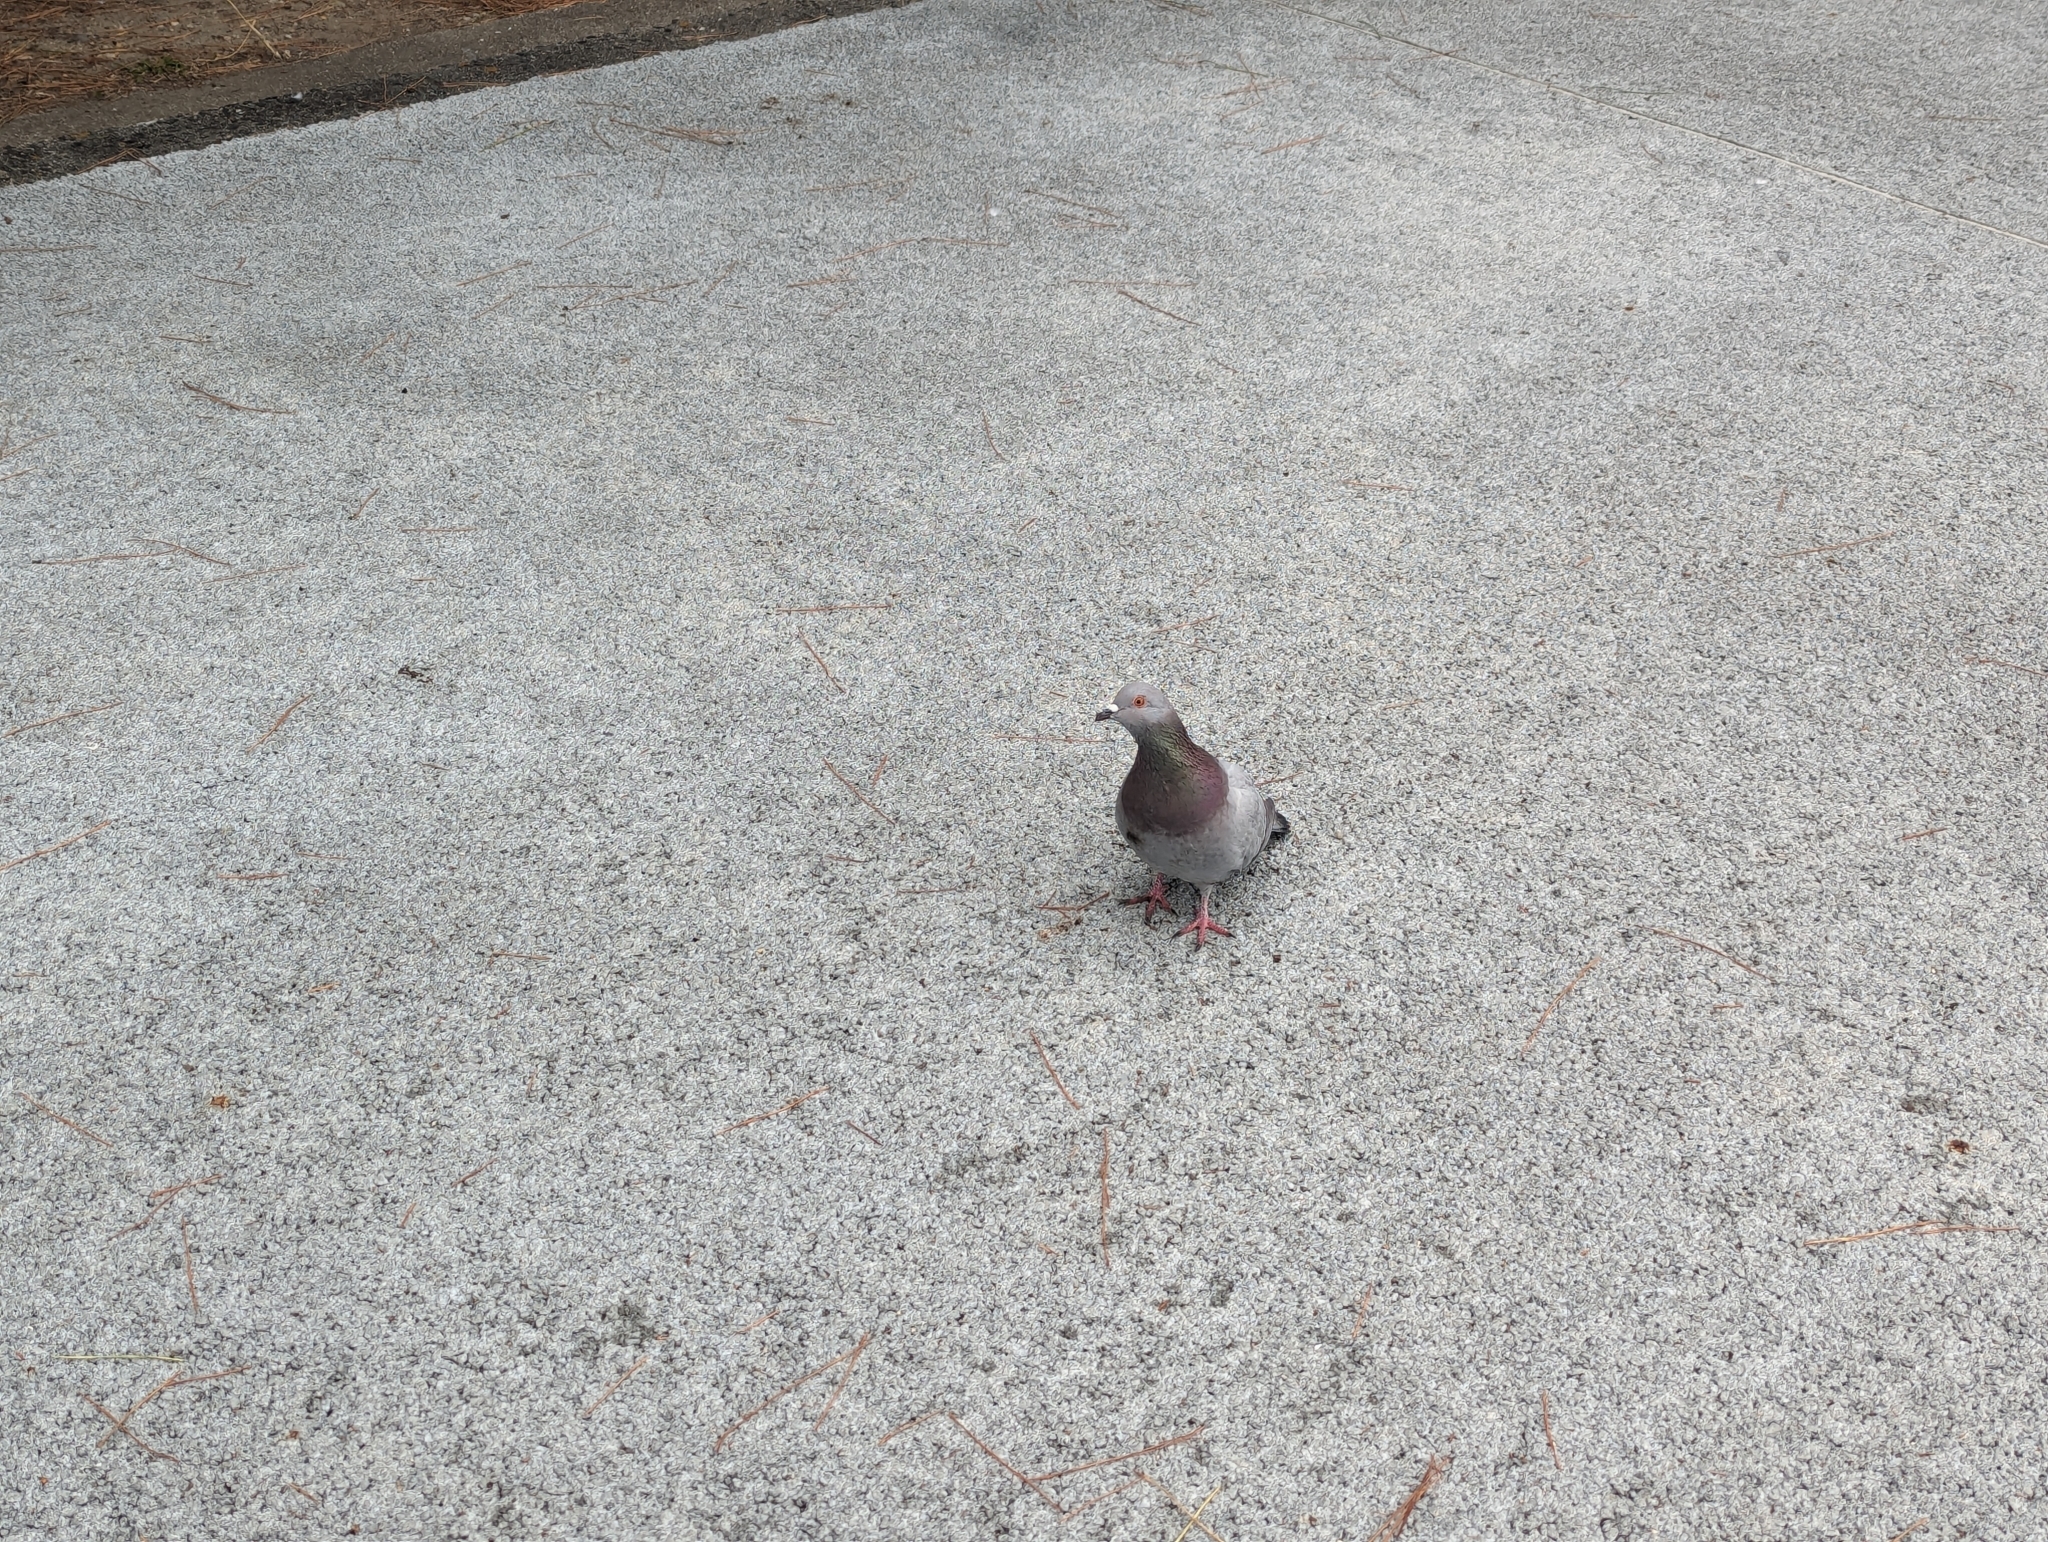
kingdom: Animalia
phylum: Chordata
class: Aves
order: Columbiformes
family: Columbidae
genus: Columba
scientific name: Columba livia
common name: Rock pigeon
